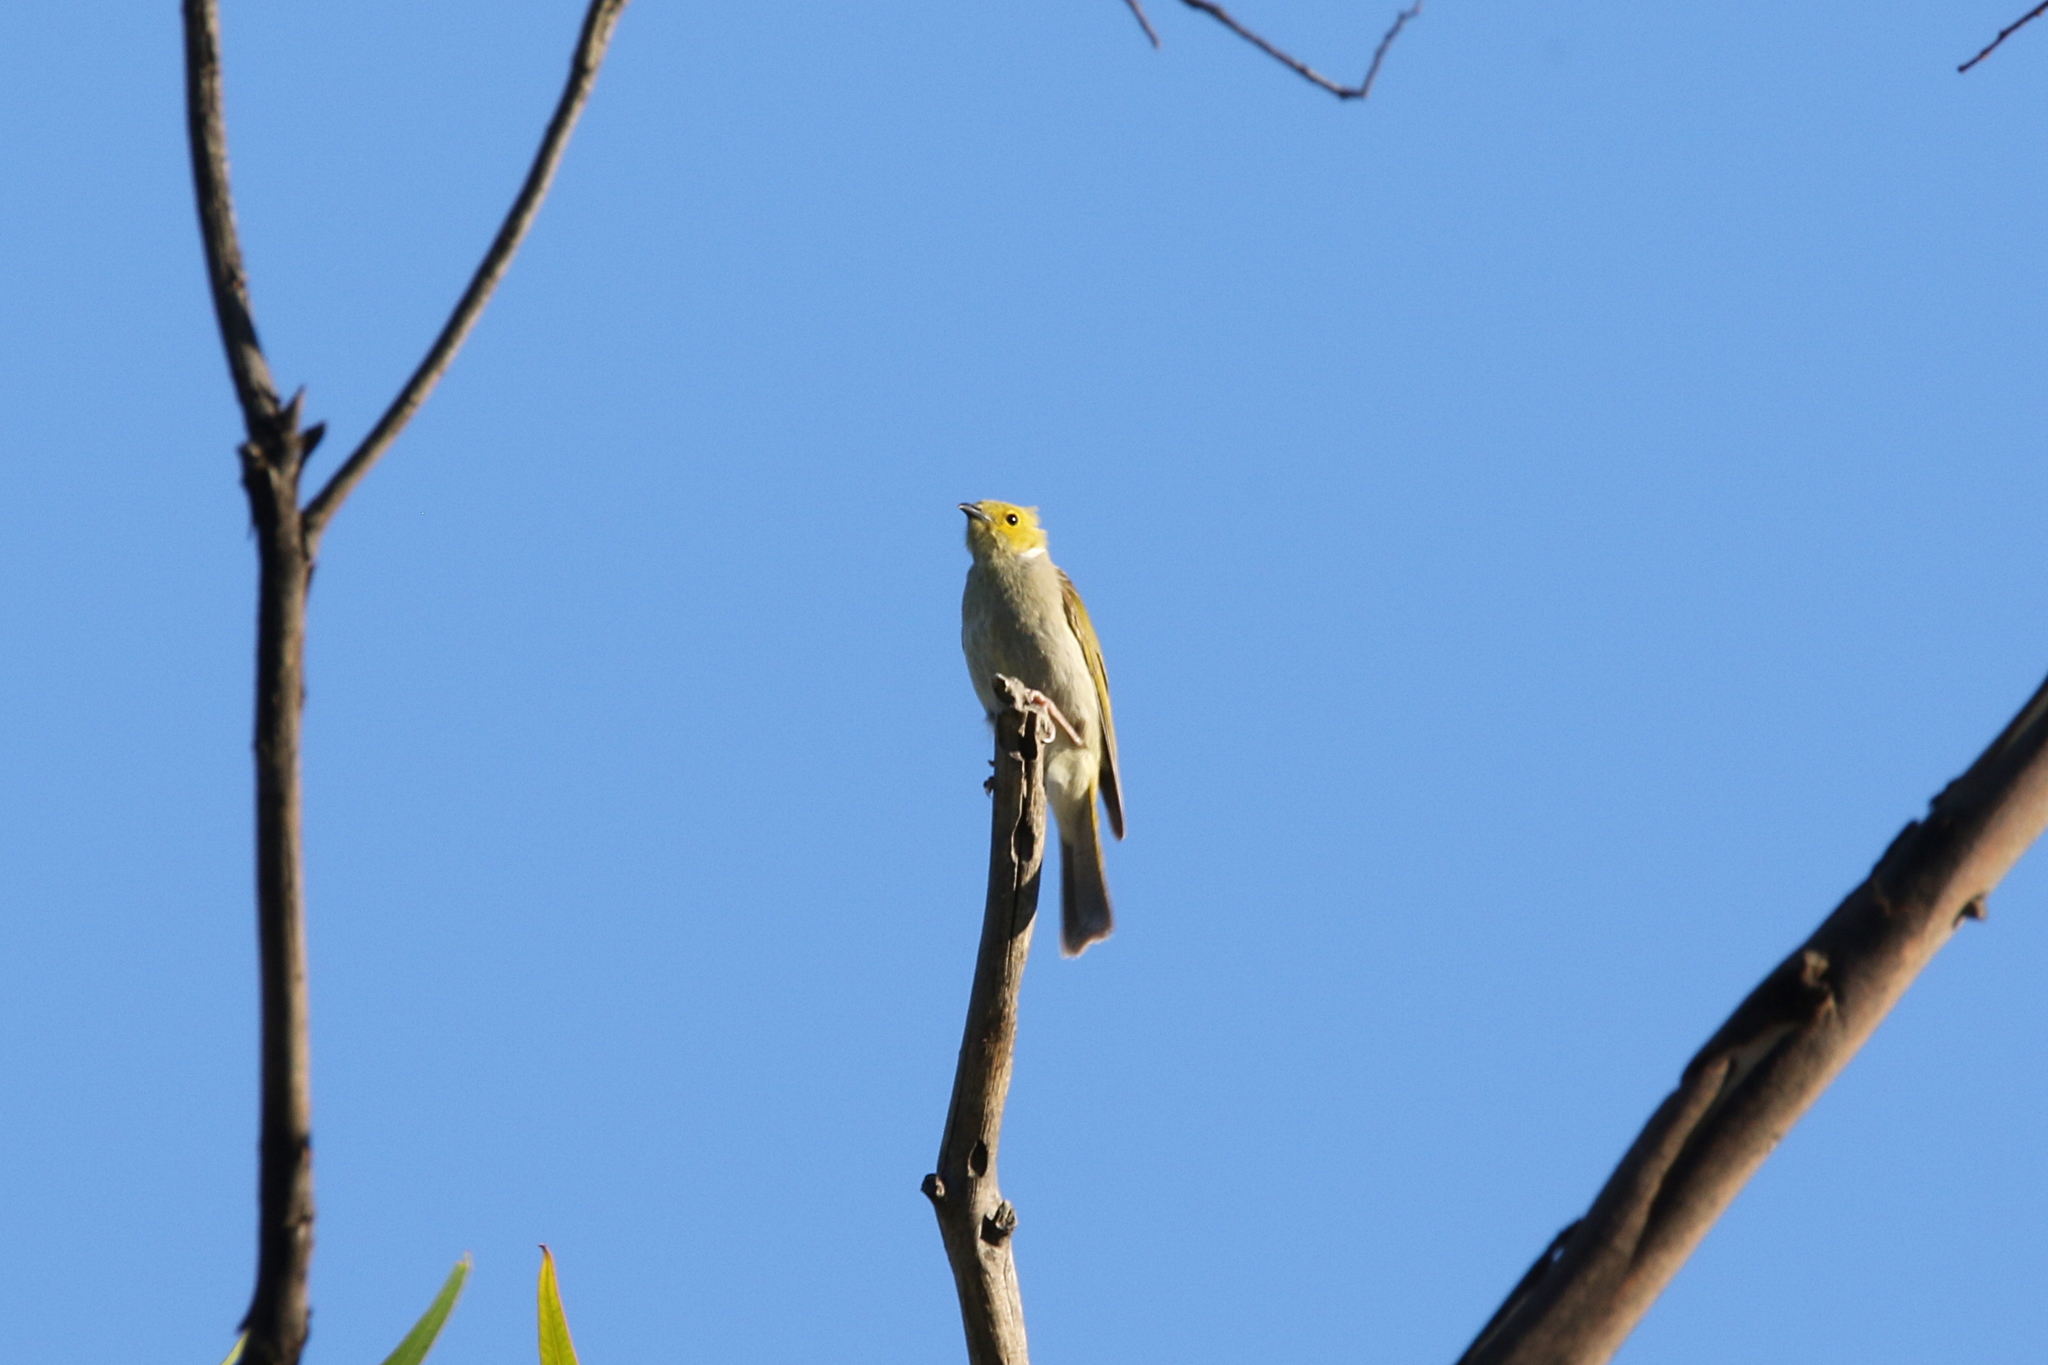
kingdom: Animalia
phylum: Chordata
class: Aves
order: Passeriformes
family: Meliphagidae
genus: Ptilotula
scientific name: Ptilotula penicillata
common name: White-plumed honeyeater
